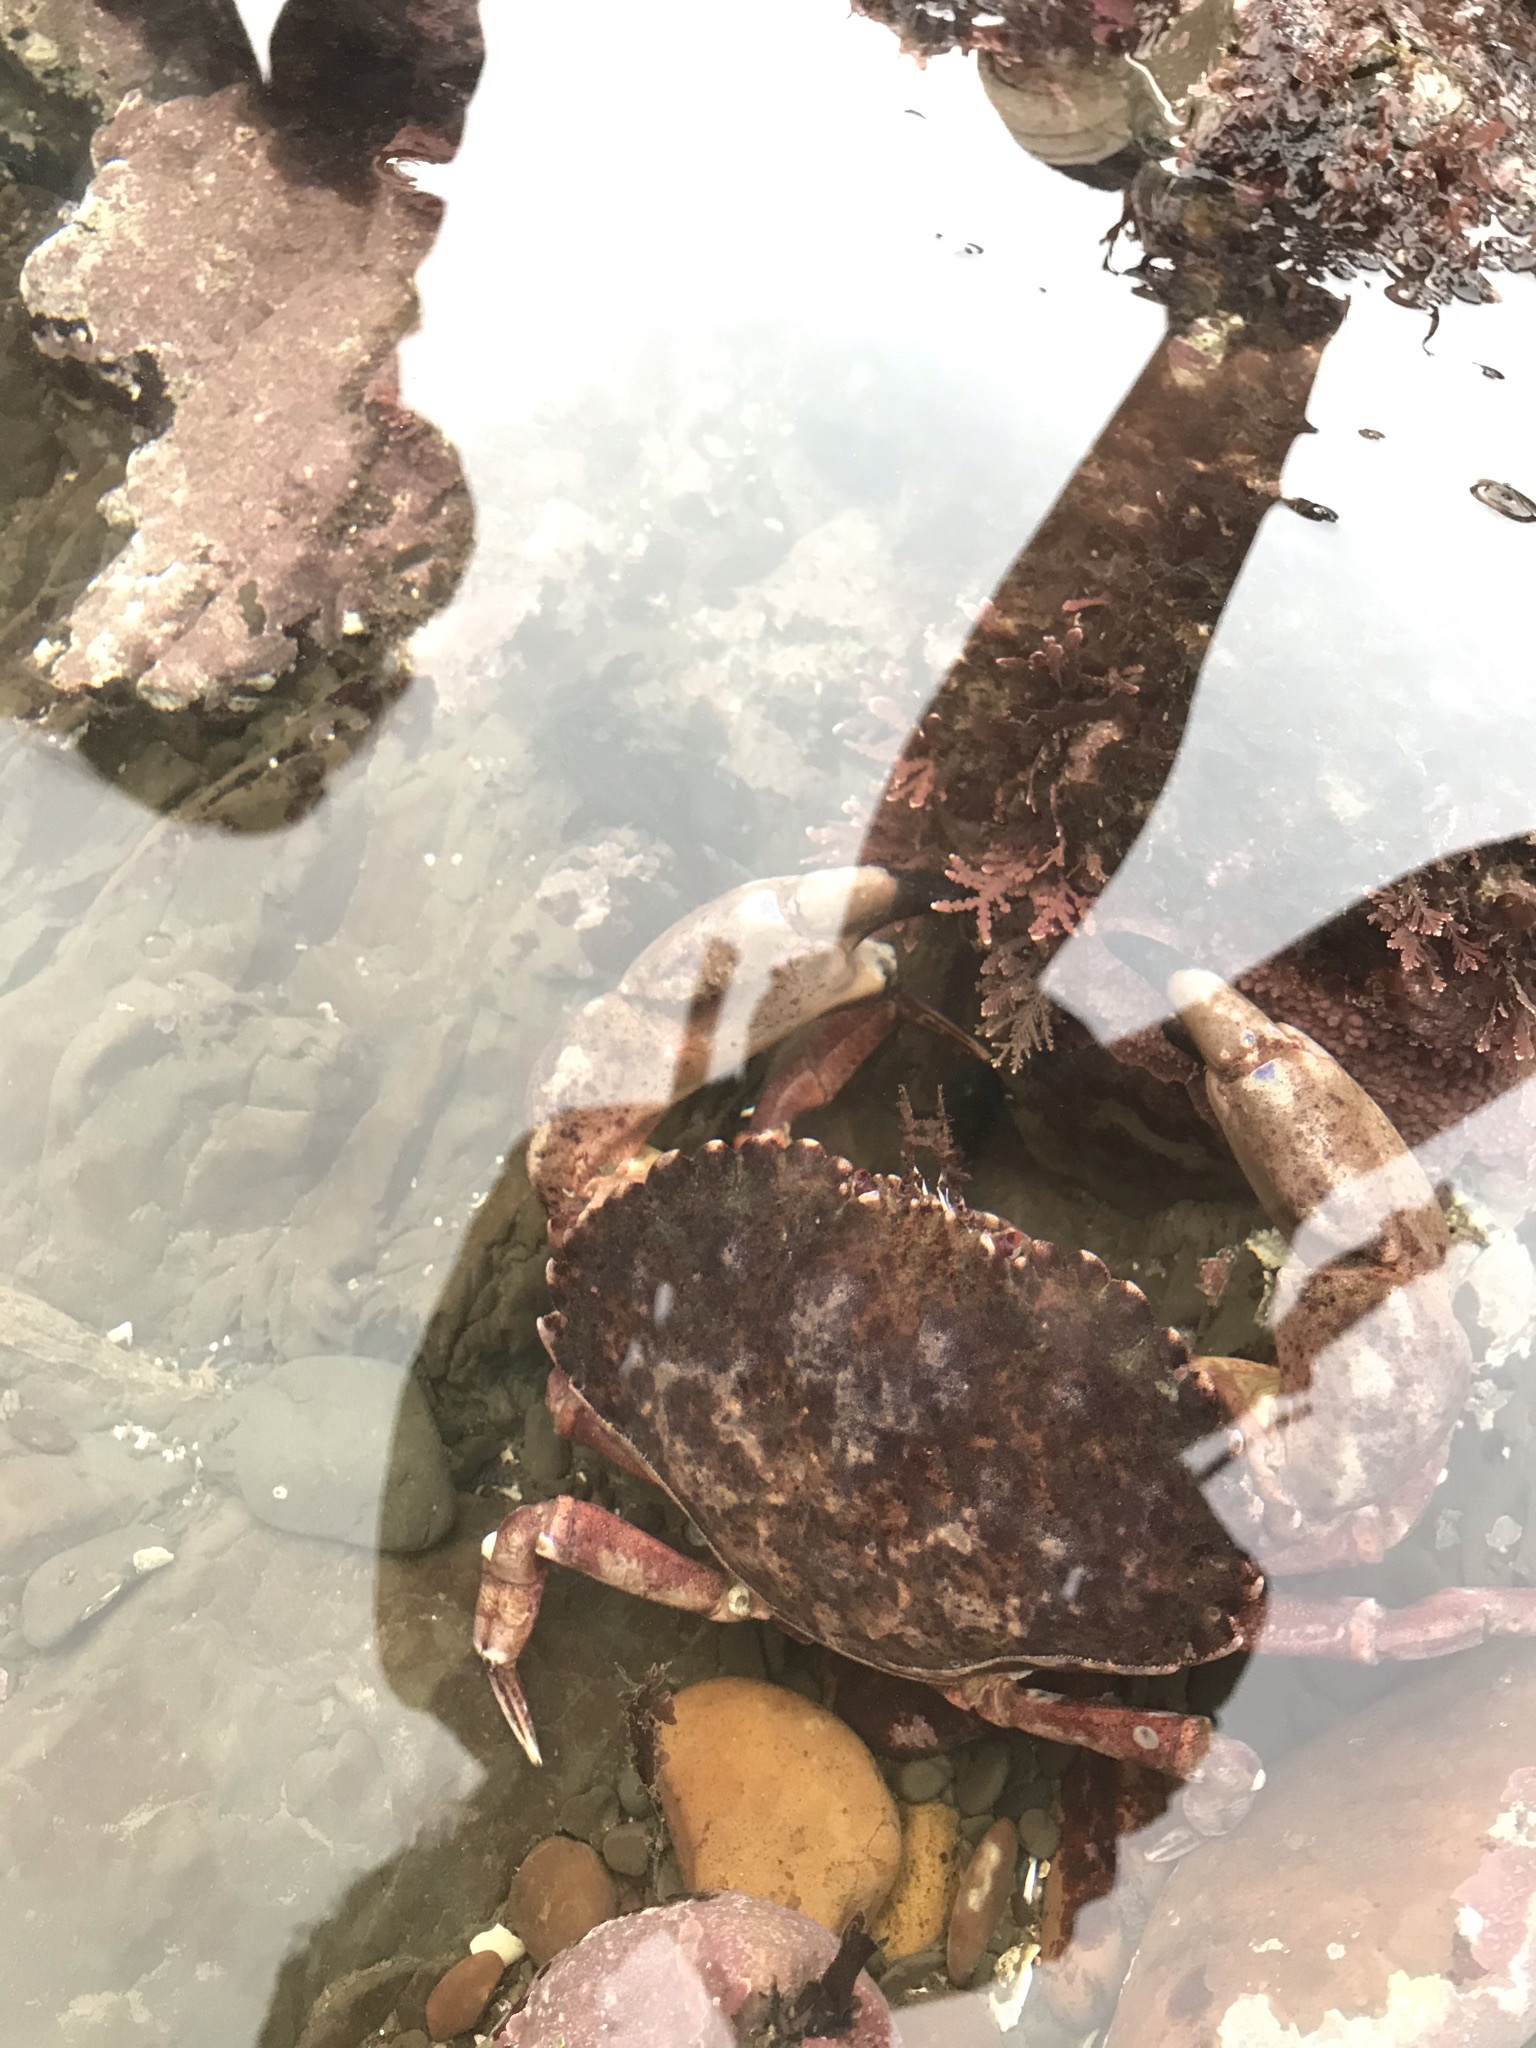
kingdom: Animalia
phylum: Arthropoda
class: Malacostraca
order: Decapoda
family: Cancridae
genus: Romaleon
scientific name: Romaleon antennarium
